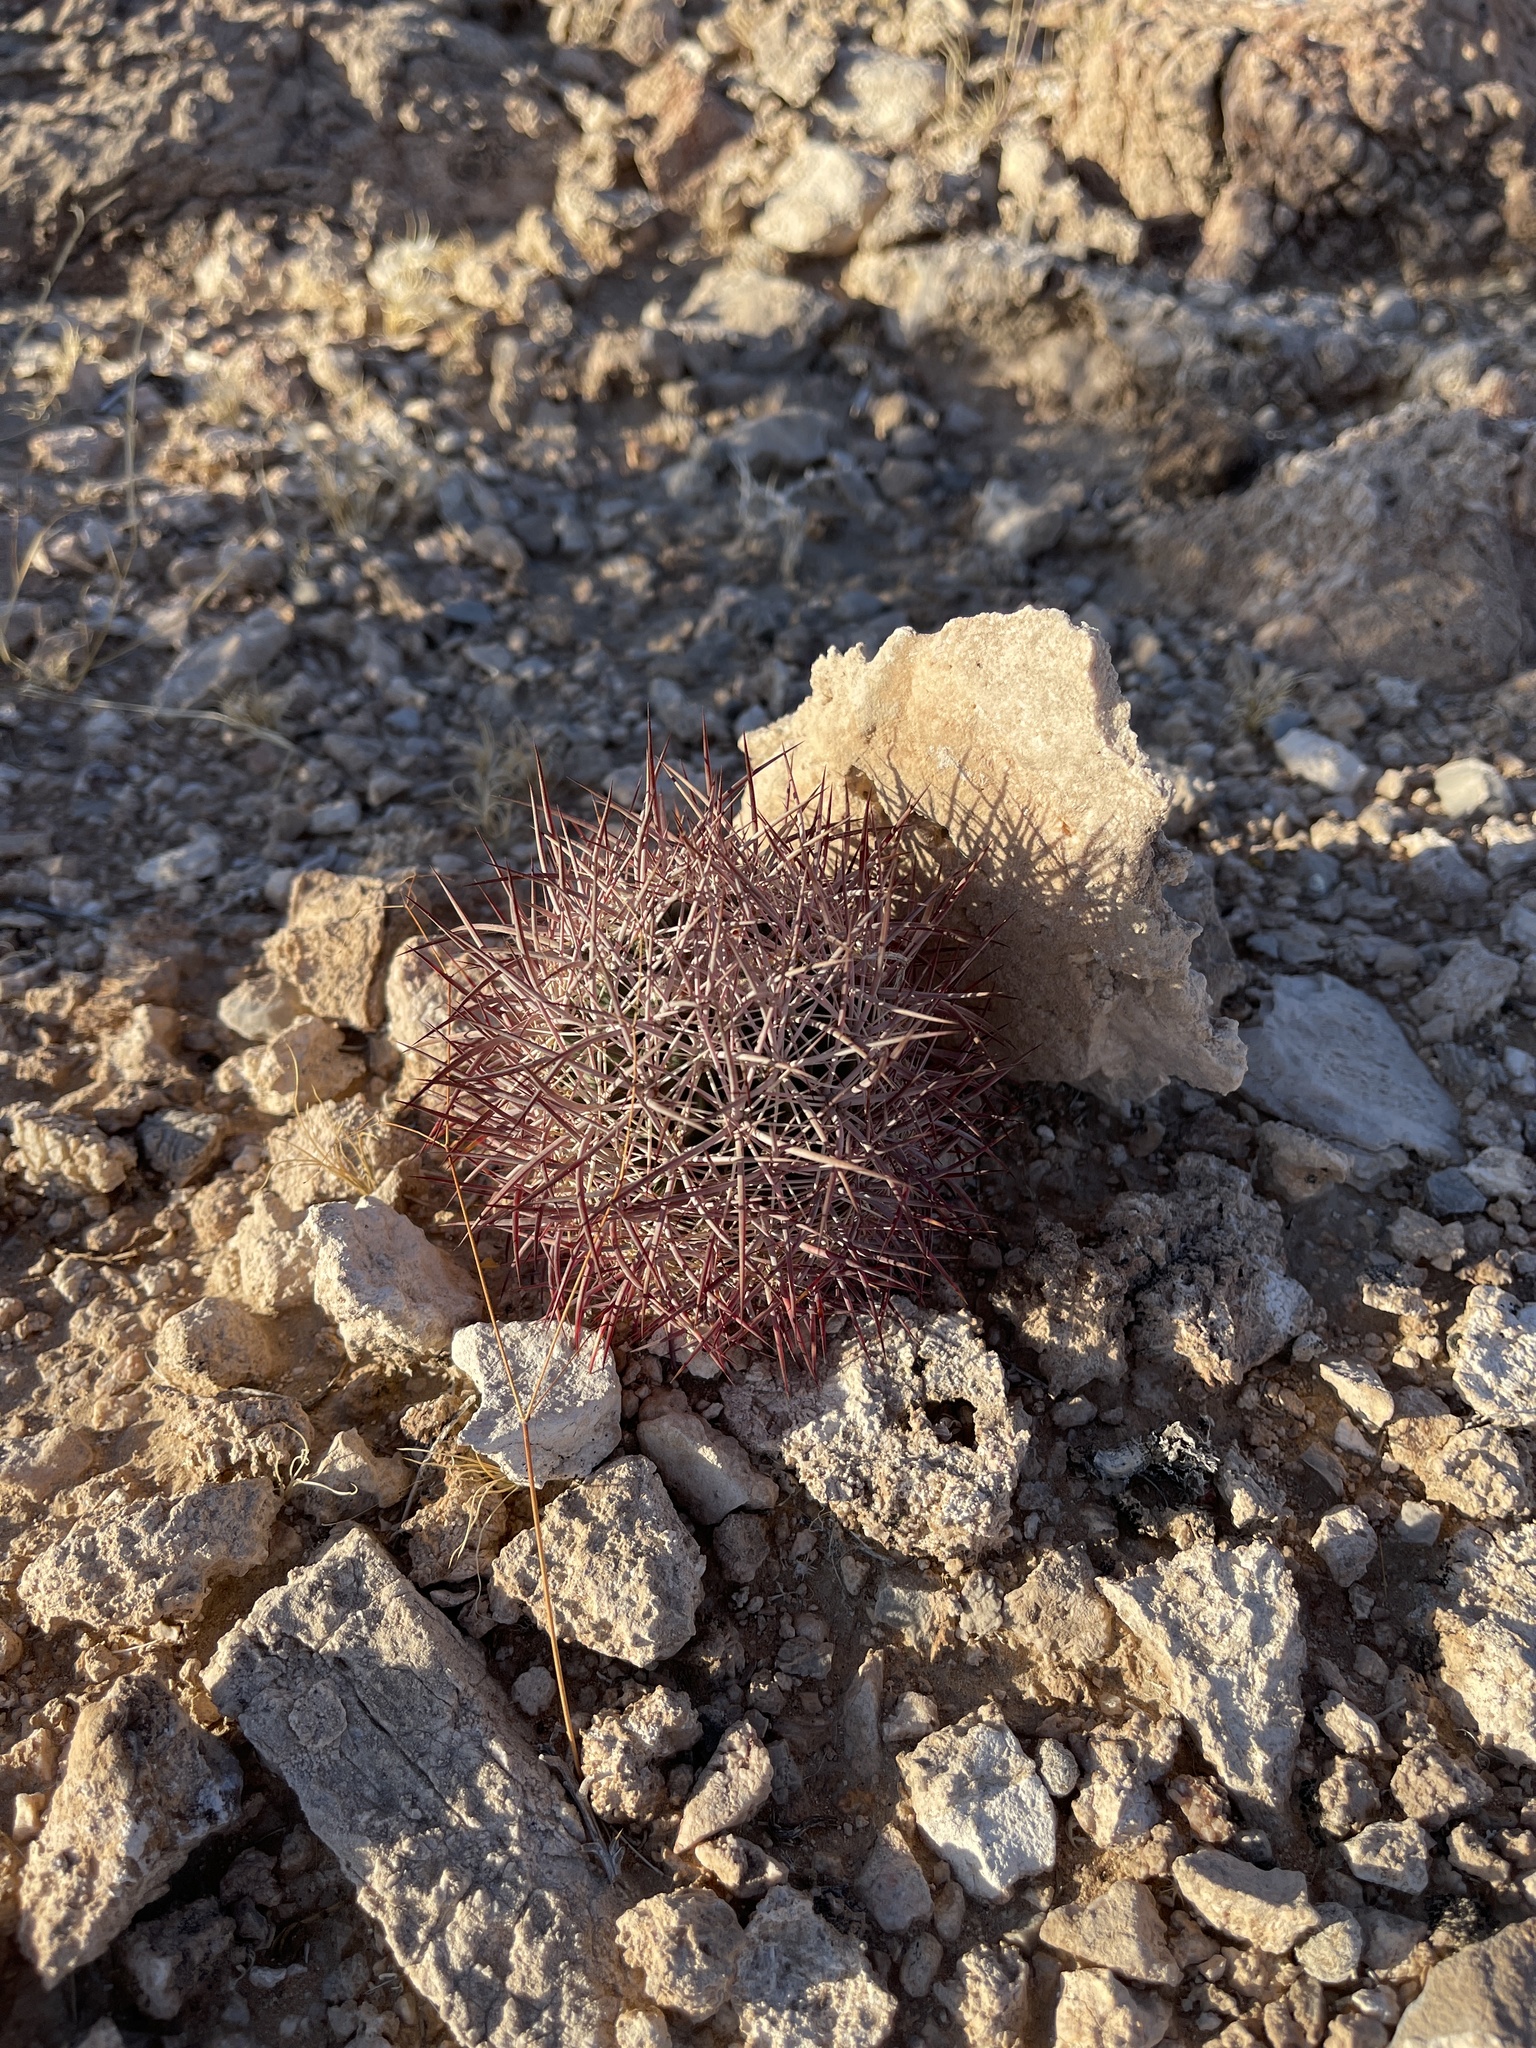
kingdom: Plantae
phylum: Tracheophyta
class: Magnoliopsida
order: Caryophyllales
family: Cactaceae
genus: Sclerocactus
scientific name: Sclerocactus johnsonii
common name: Eight-spine fishhook cactus
